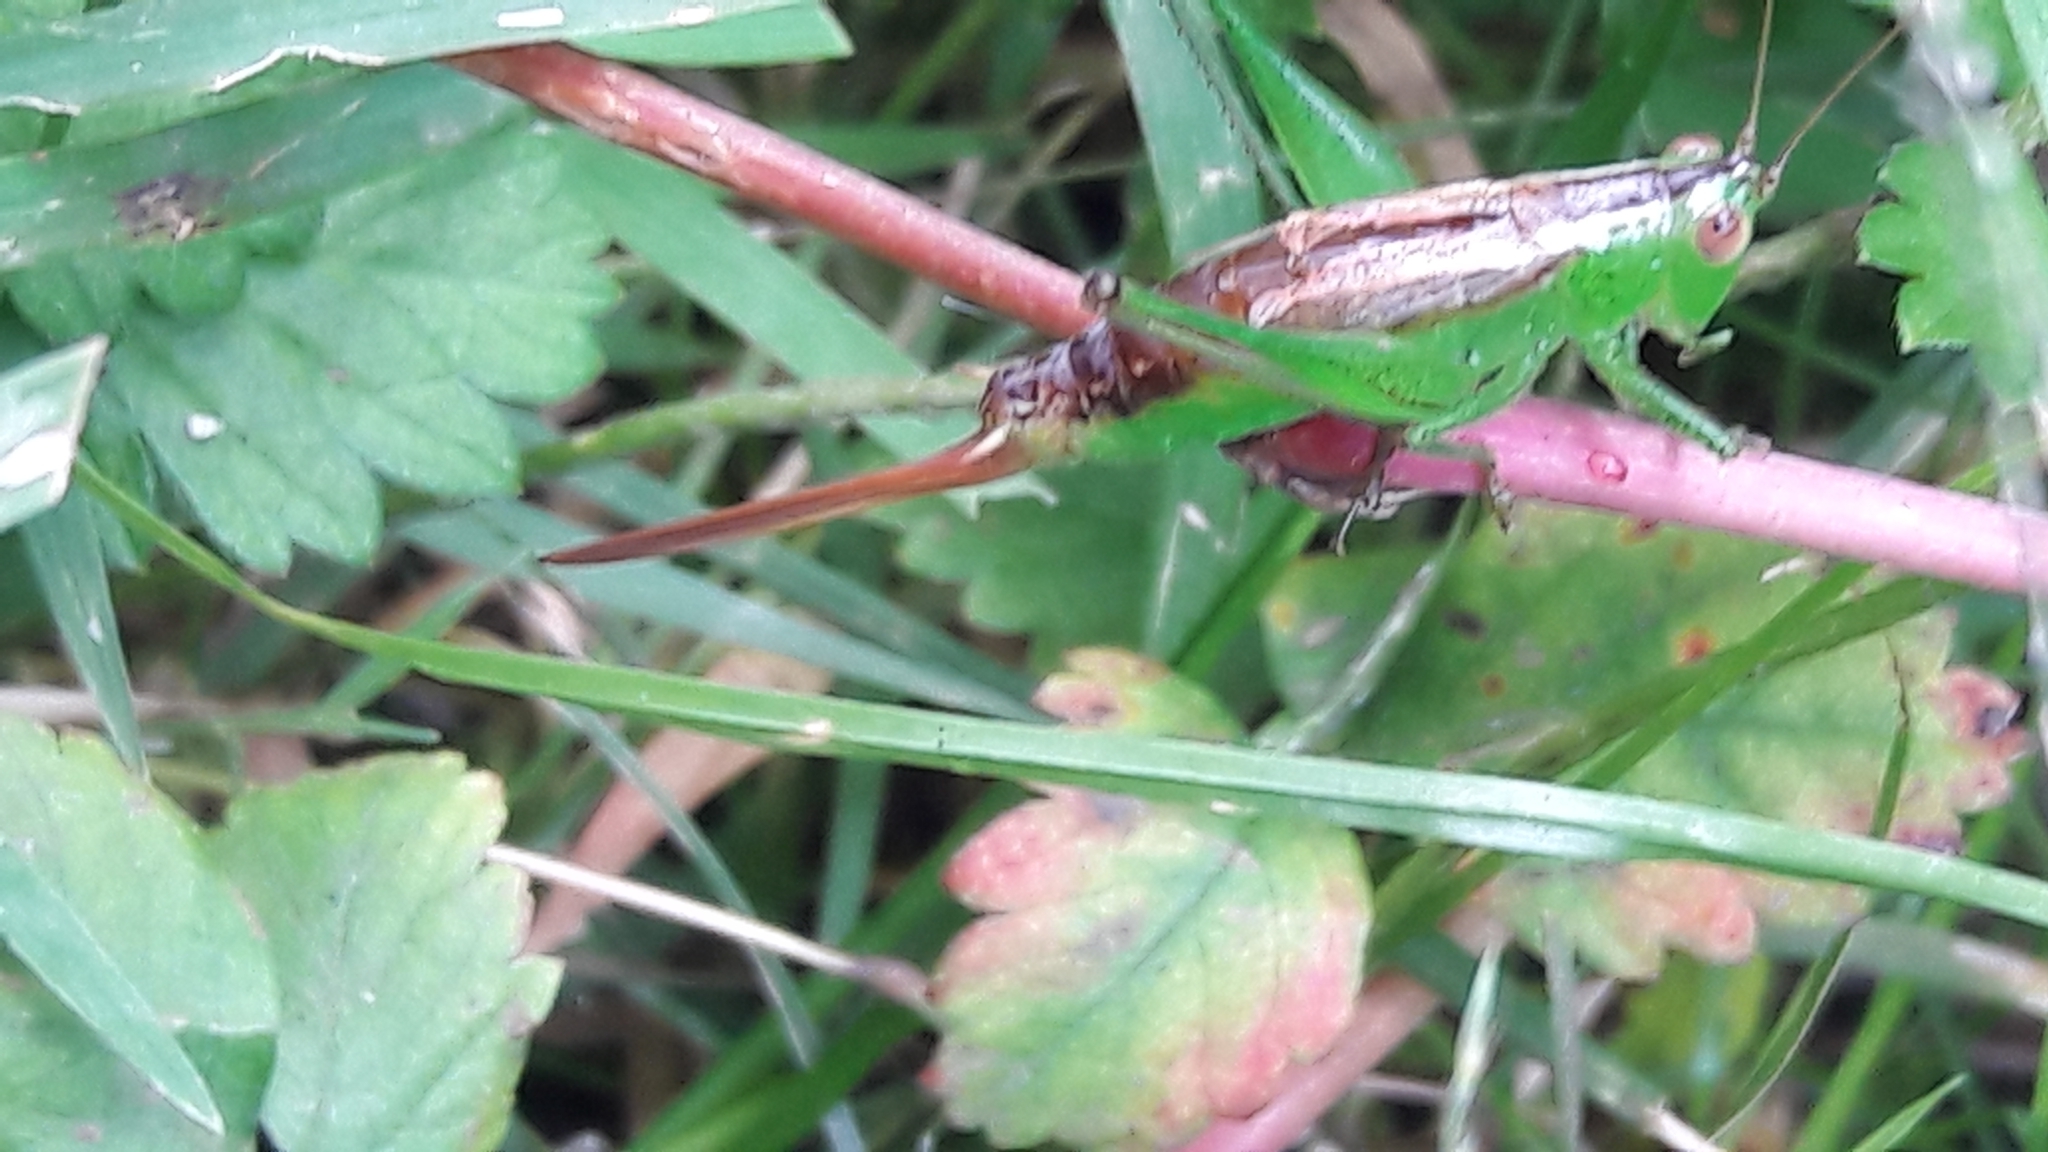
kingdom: Animalia
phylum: Arthropoda
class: Insecta
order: Orthoptera
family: Tettigoniidae
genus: Conocephalus
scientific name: Conocephalus brevipennis
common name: Short-winged meadow katydid
